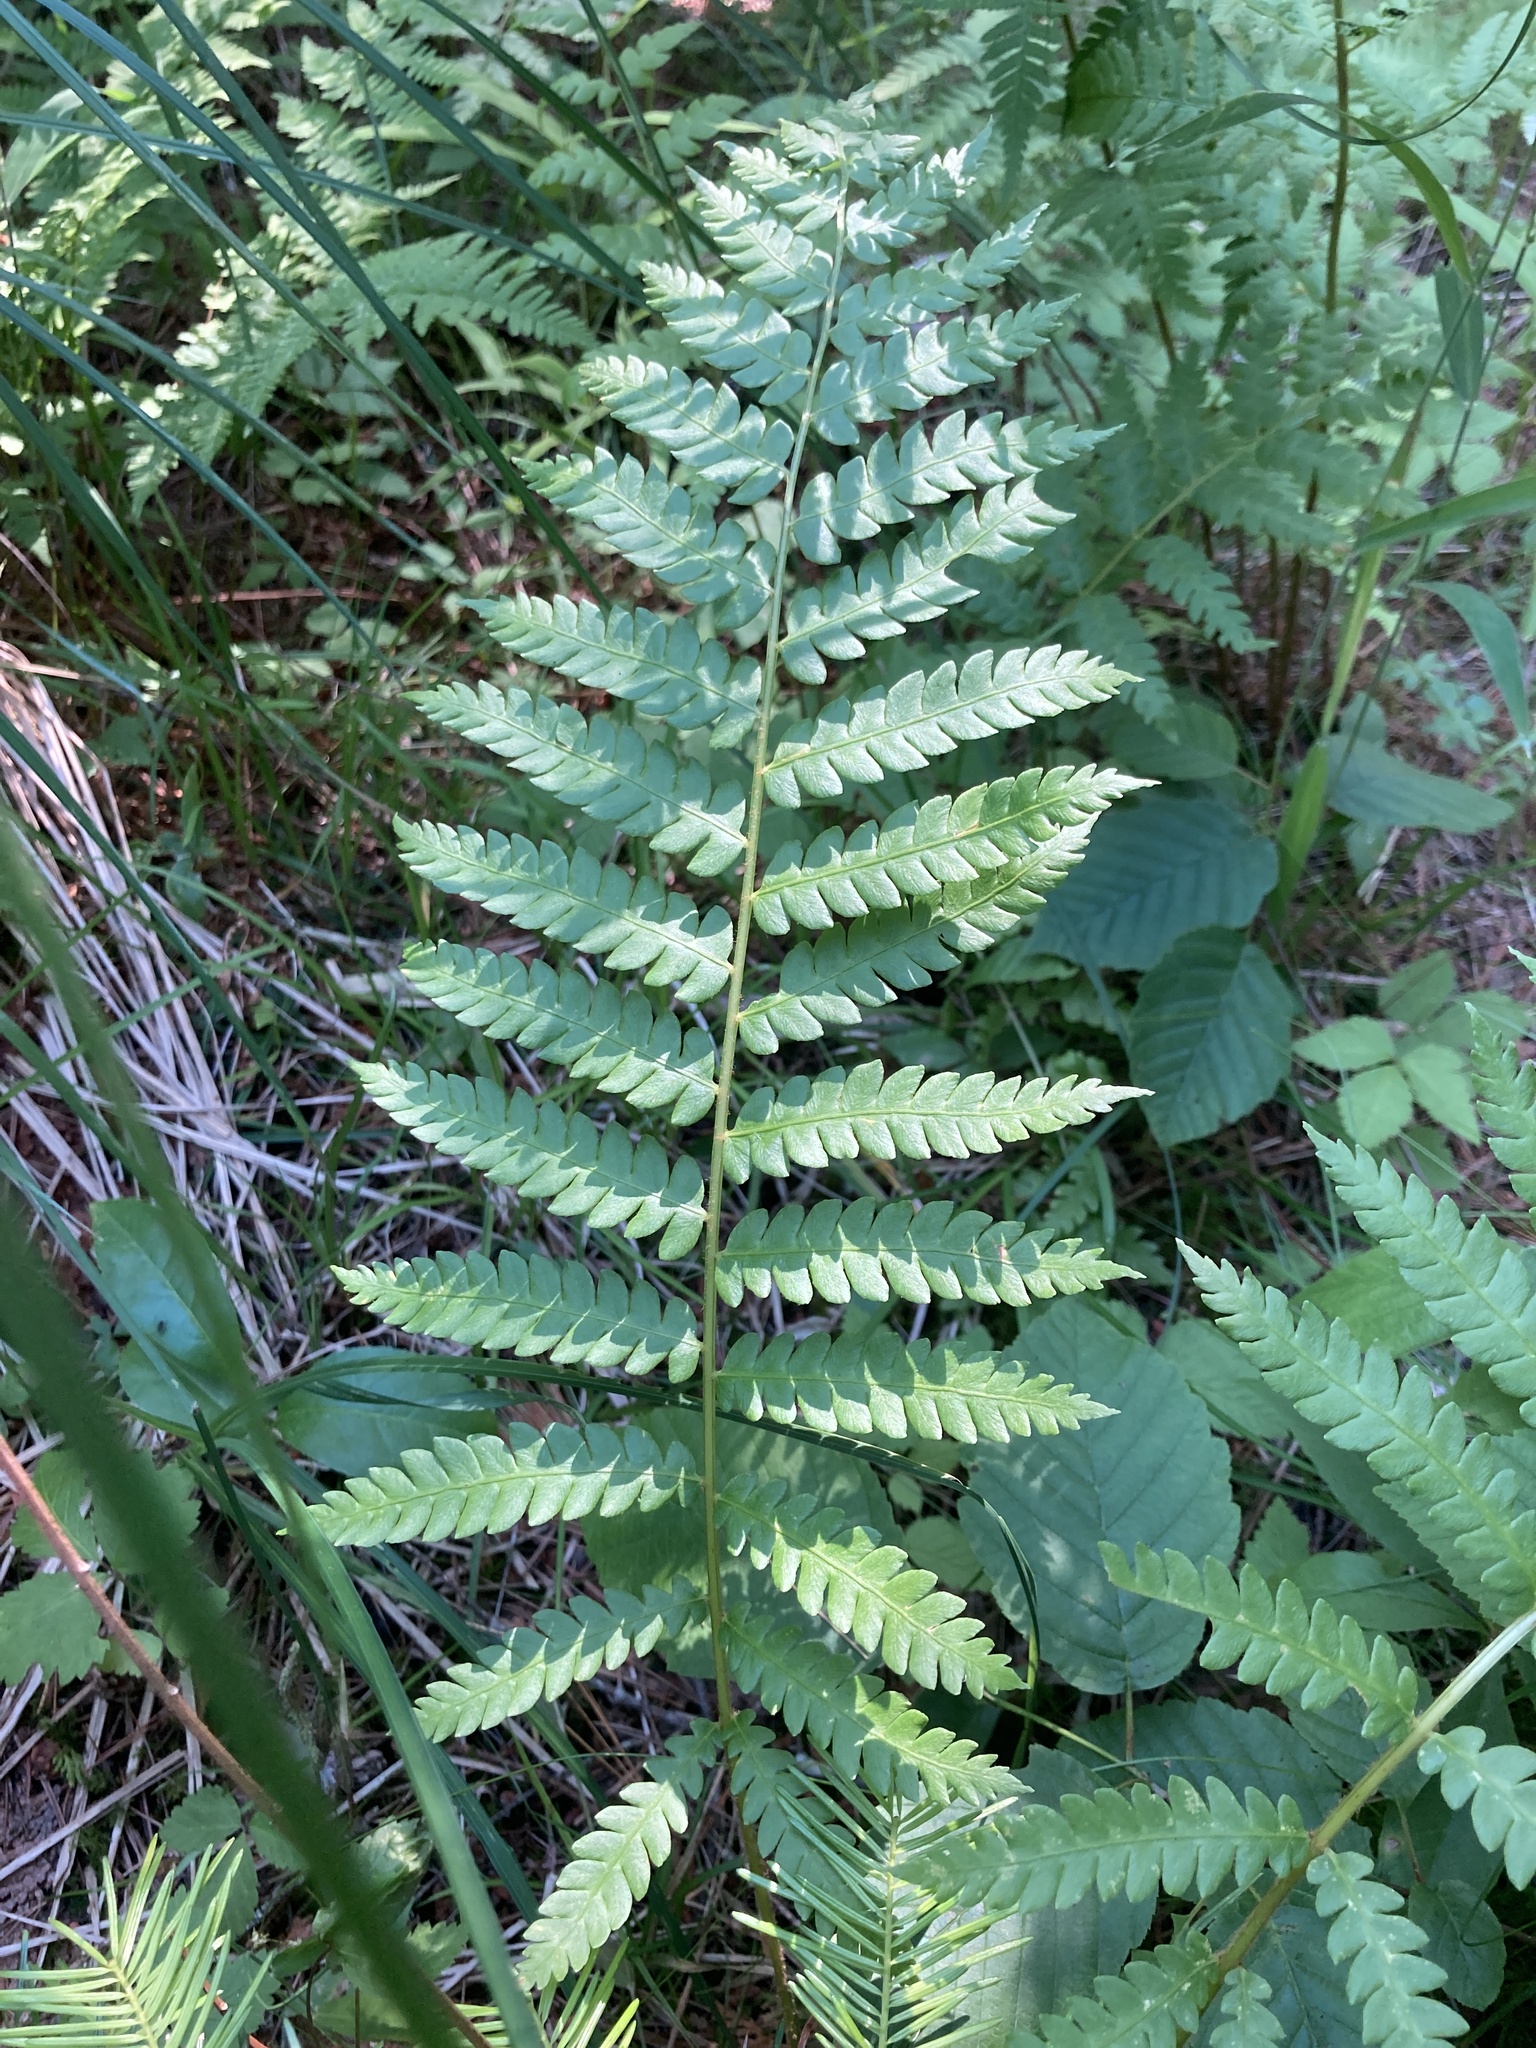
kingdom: Plantae
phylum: Tracheophyta
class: Polypodiopsida
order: Osmundales
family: Osmundaceae
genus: Osmundastrum
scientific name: Osmundastrum cinnamomeum
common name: Cinnamon fern
